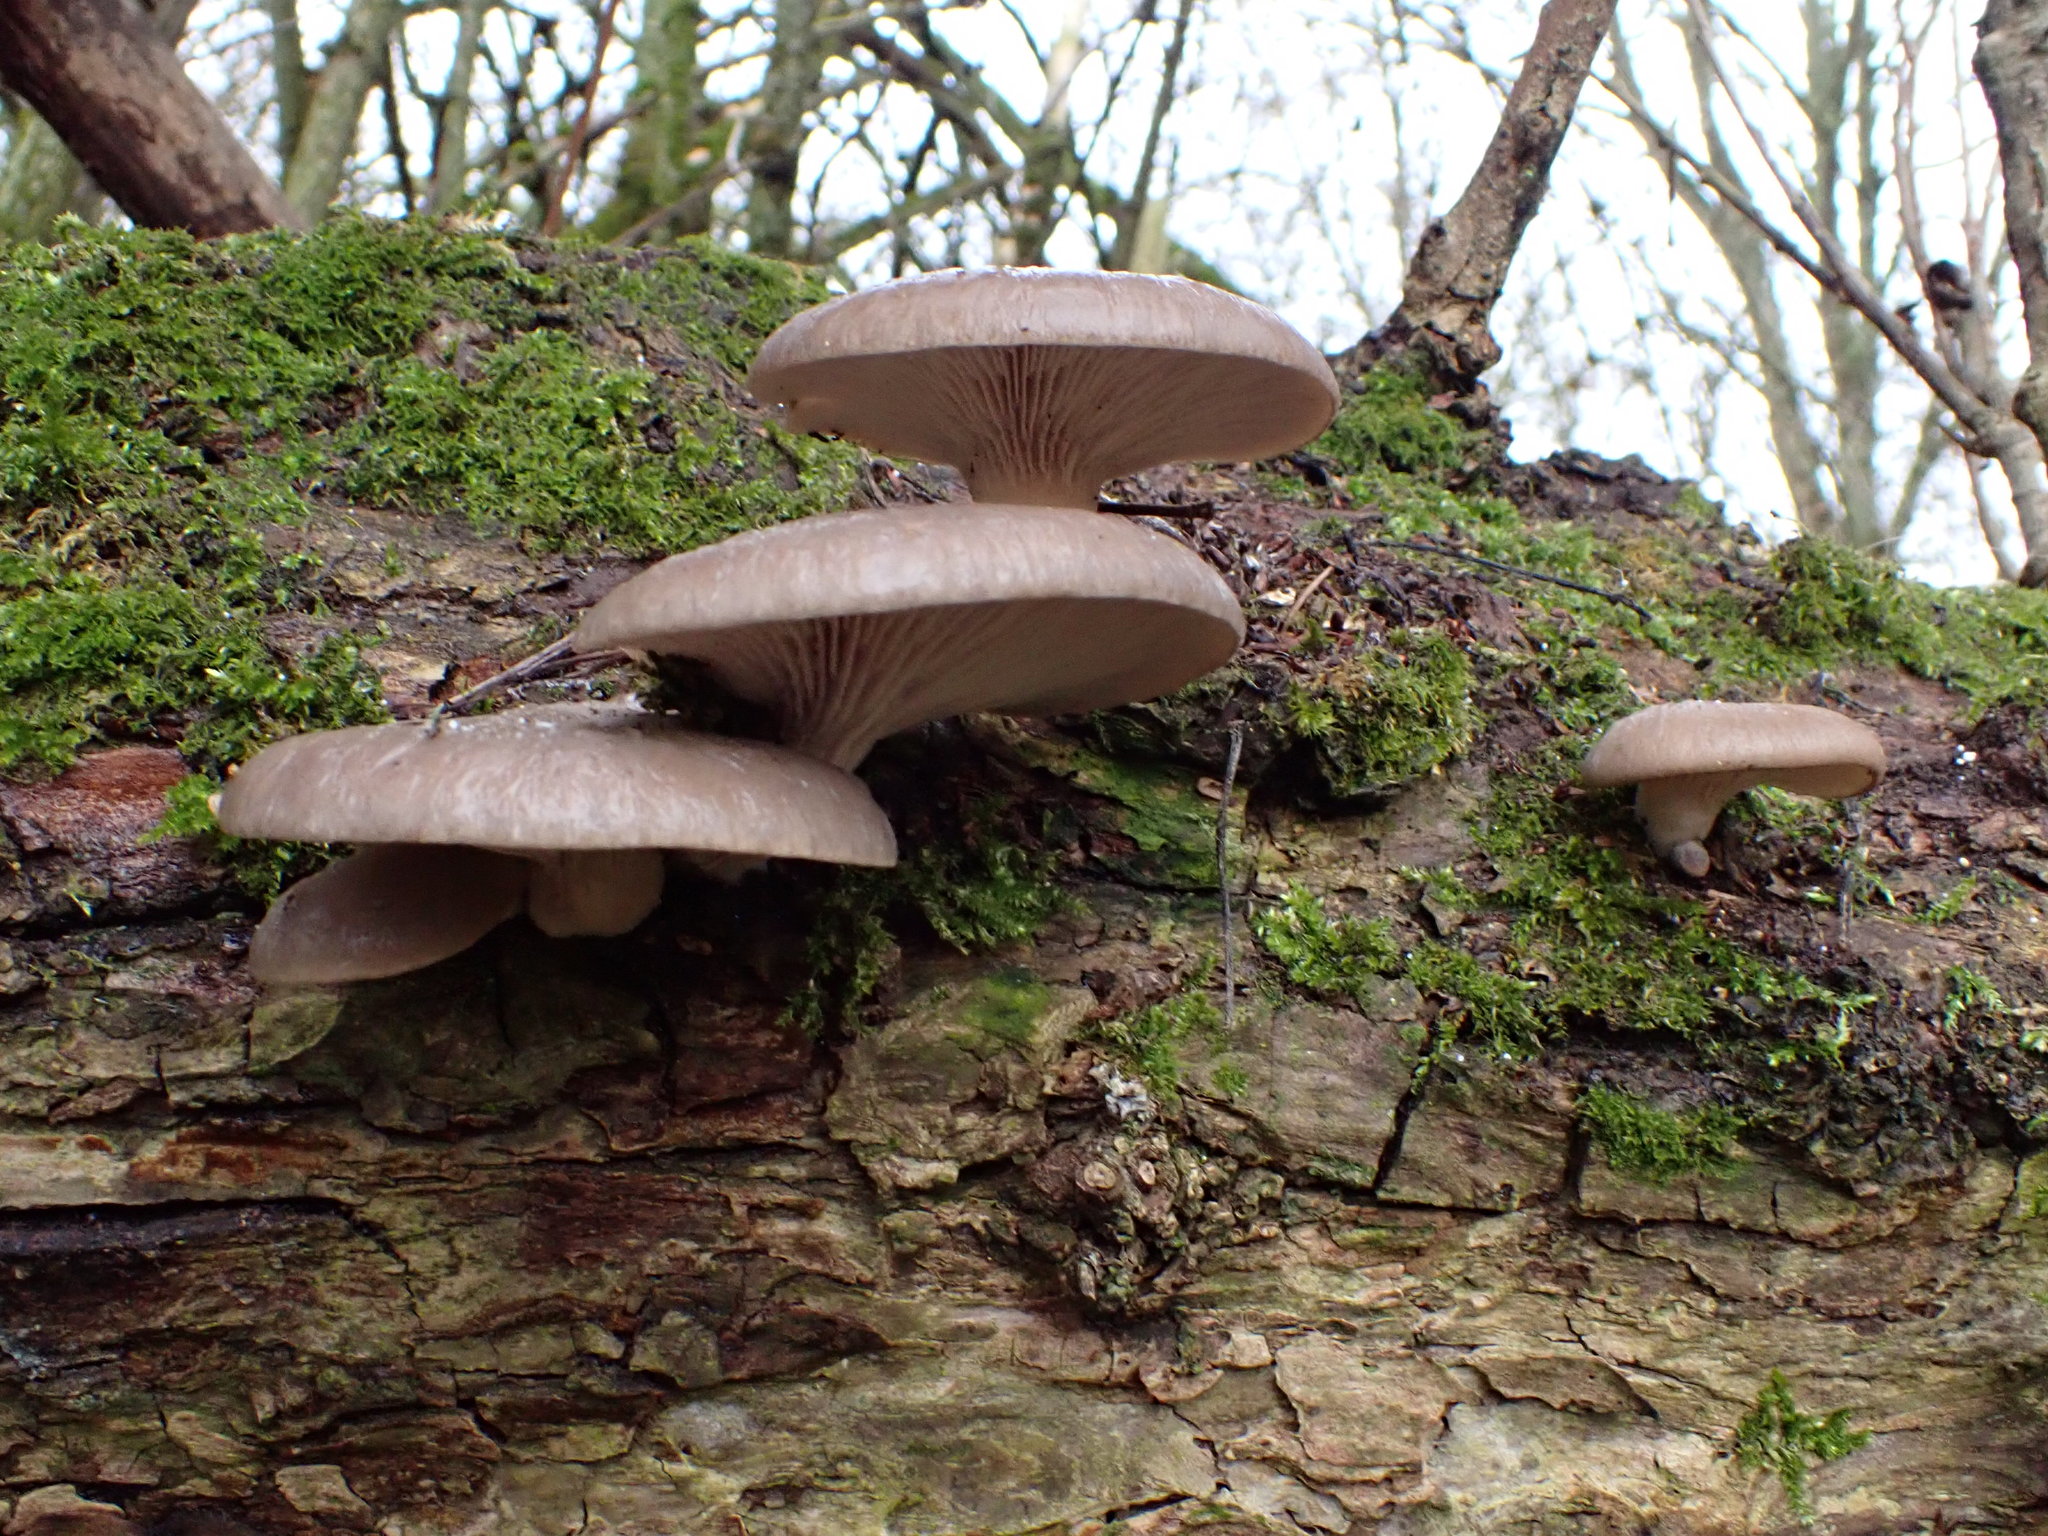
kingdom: Fungi
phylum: Basidiomycota
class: Agaricomycetes
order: Agaricales
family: Pleurotaceae
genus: Pleurotus
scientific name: Pleurotus ostreatus
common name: Oyster mushroom
